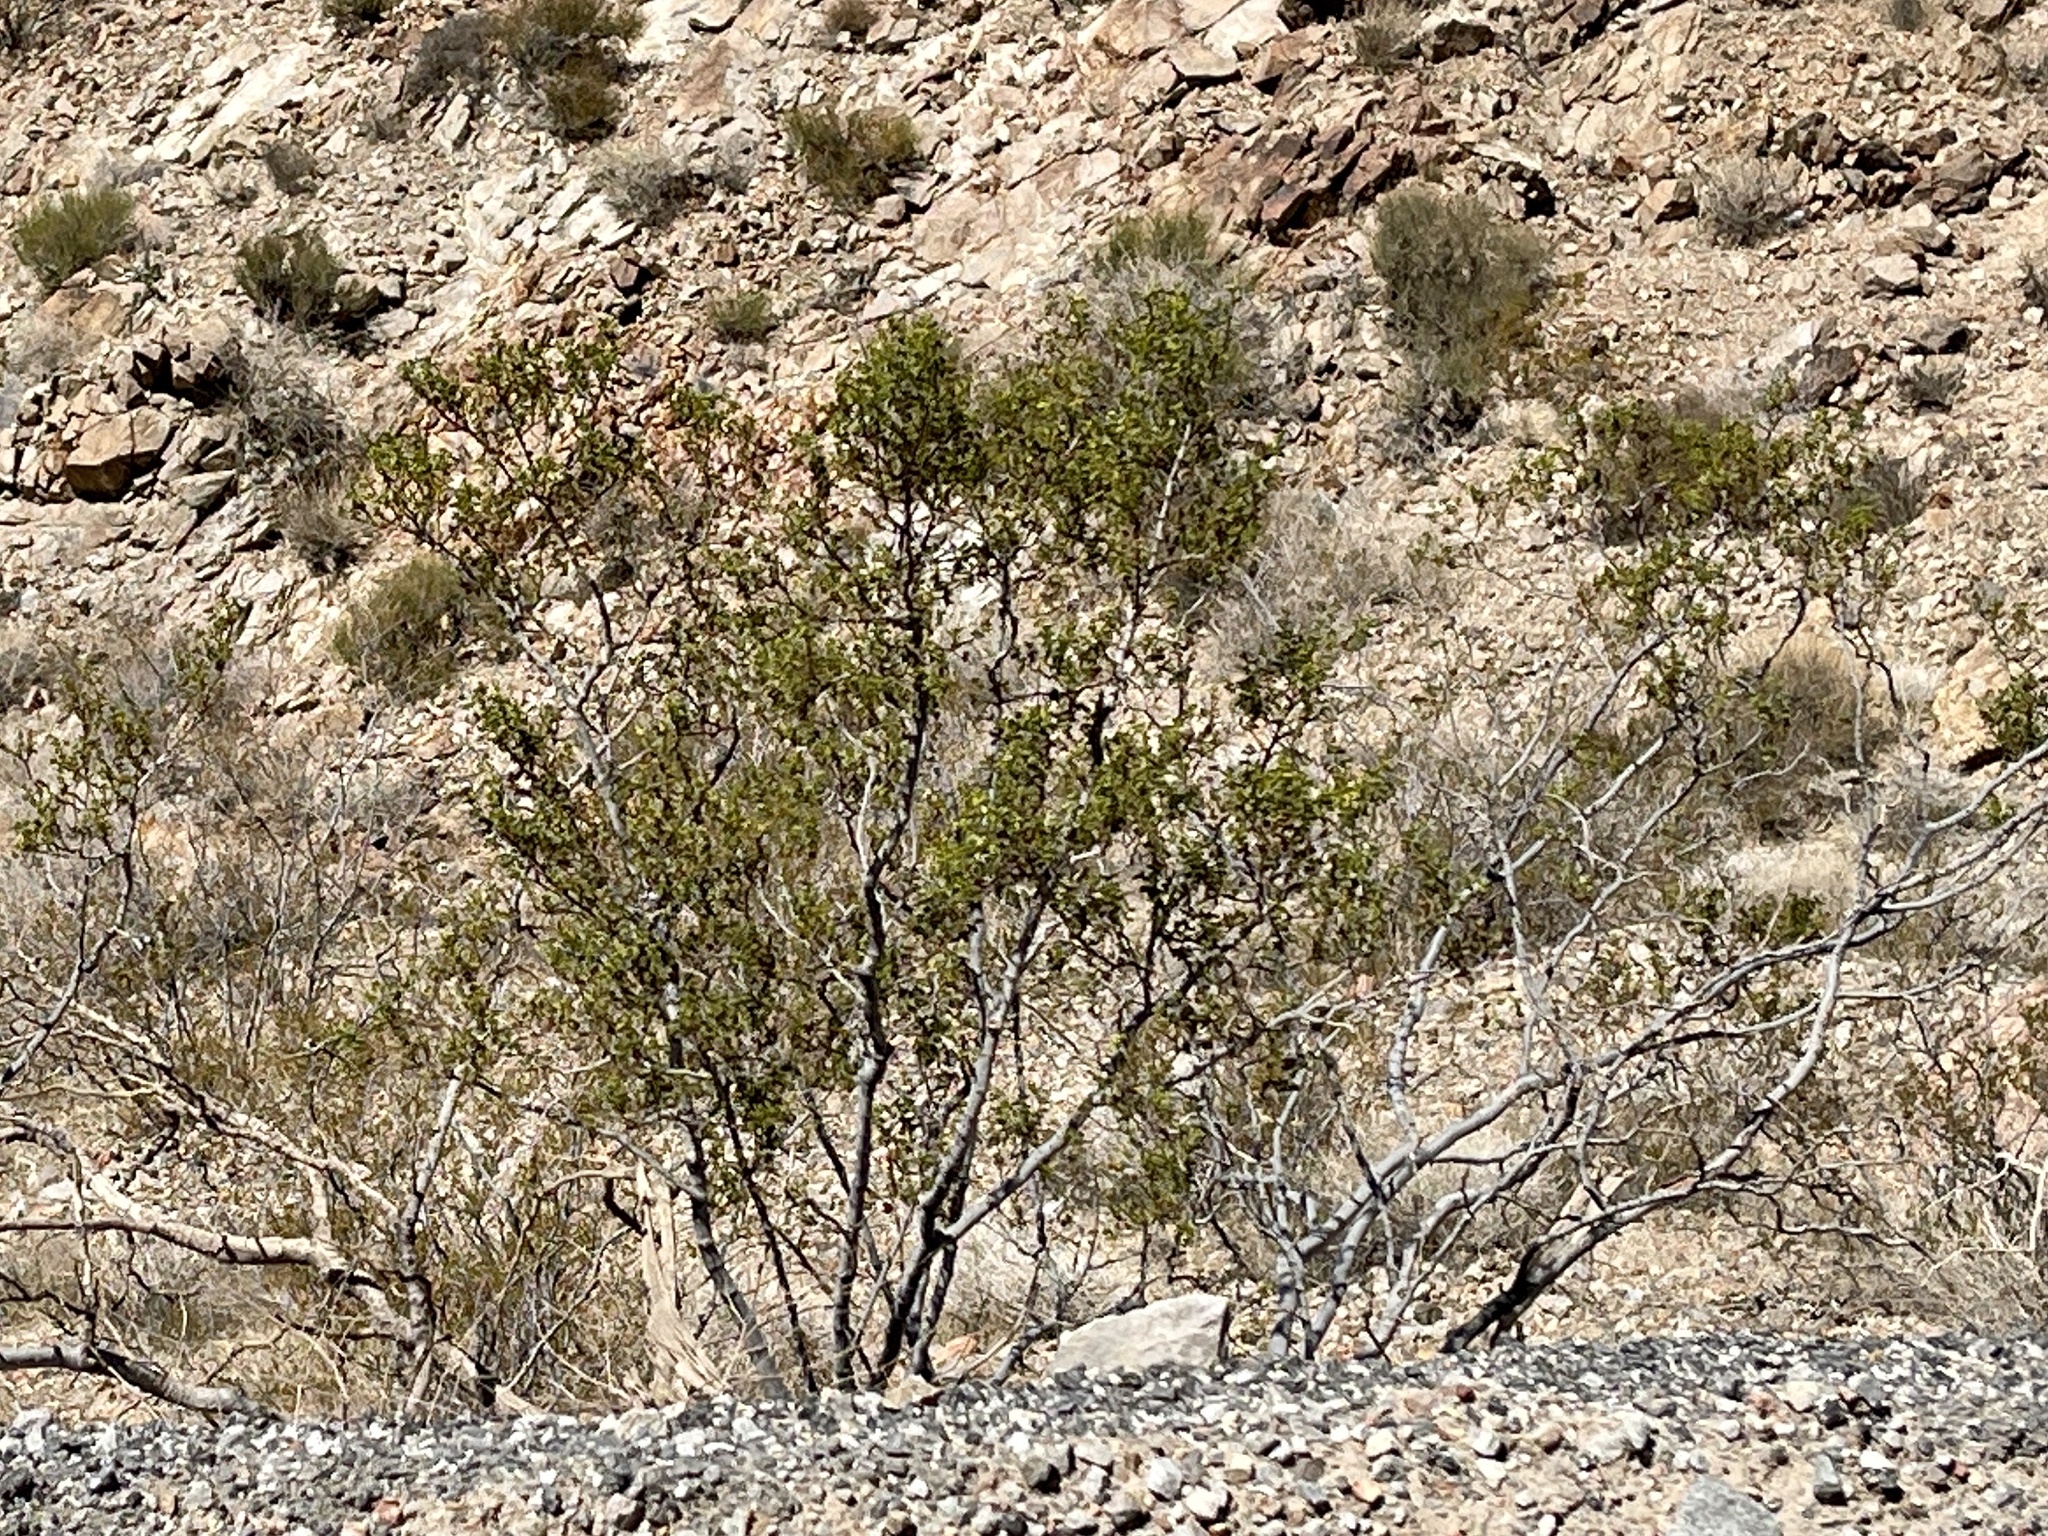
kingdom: Plantae
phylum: Tracheophyta
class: Magnoliopsida
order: Zygophyllales
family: Zygophyllaceae
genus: Larrea
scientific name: Larrea tridentata
